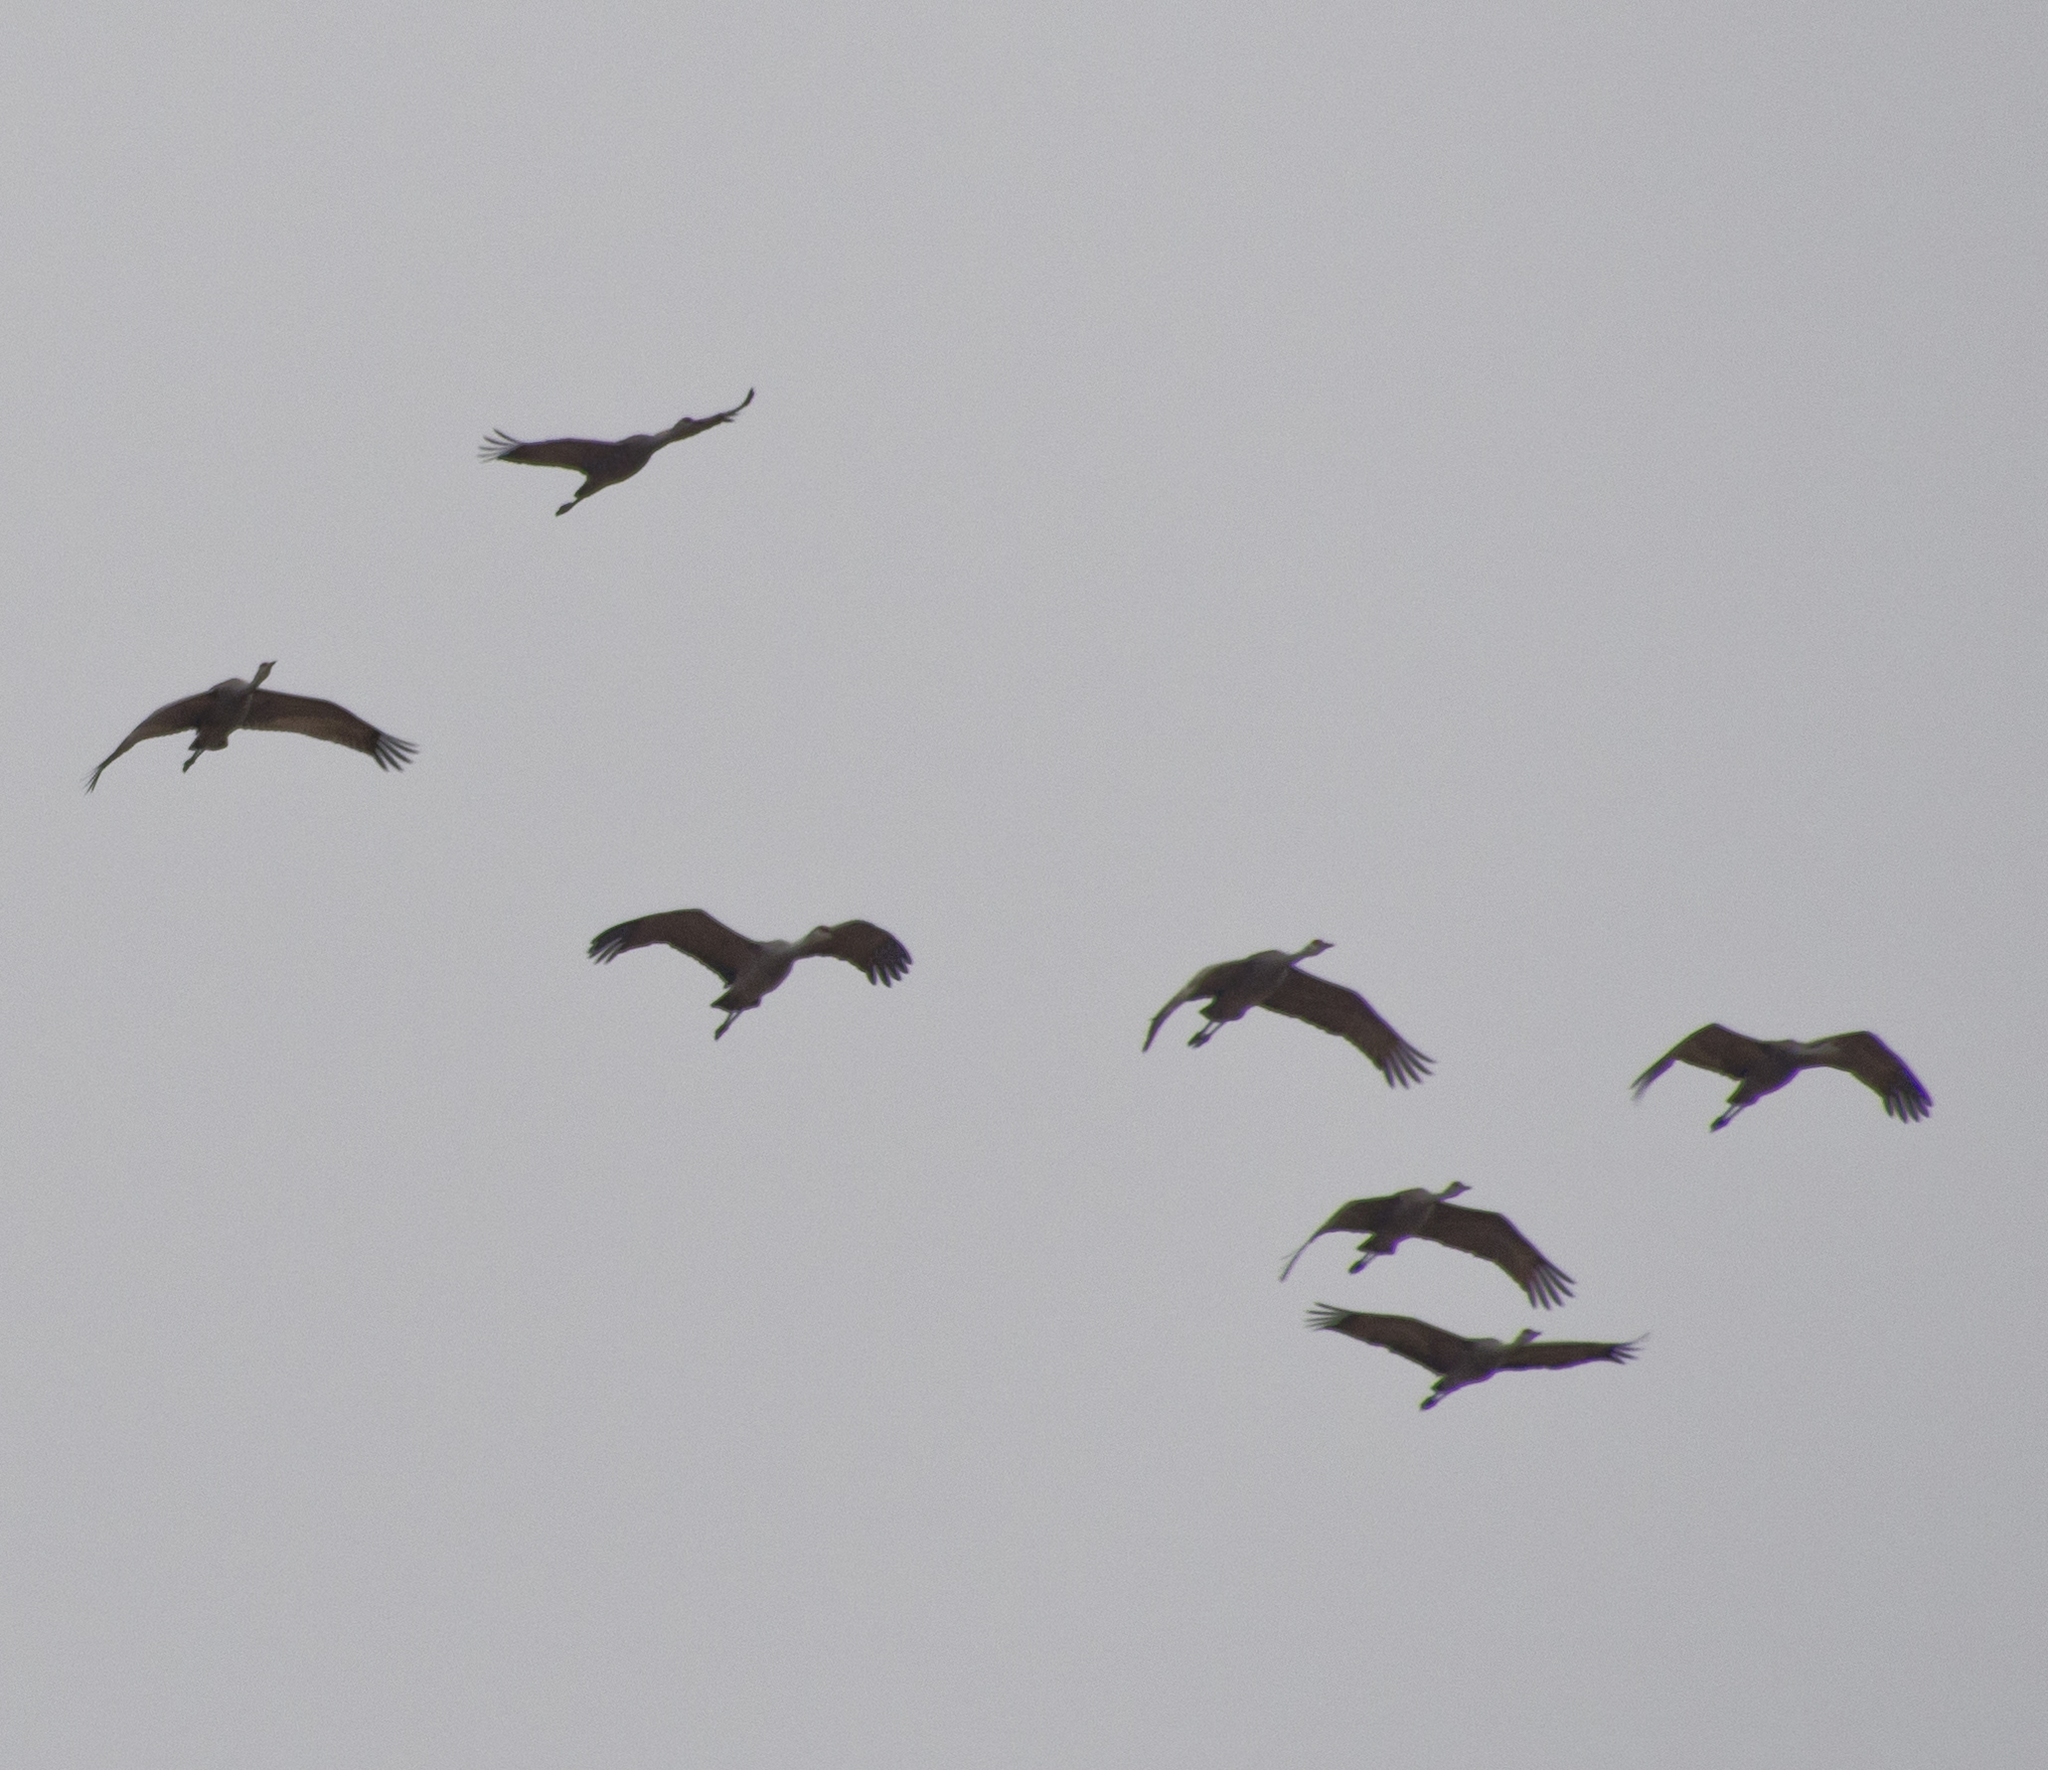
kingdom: Animalia
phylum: Chordata
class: Aves
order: Gruiformes
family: Gruidae
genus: Grus
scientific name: Grus canadensis
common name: Sandhill crane
